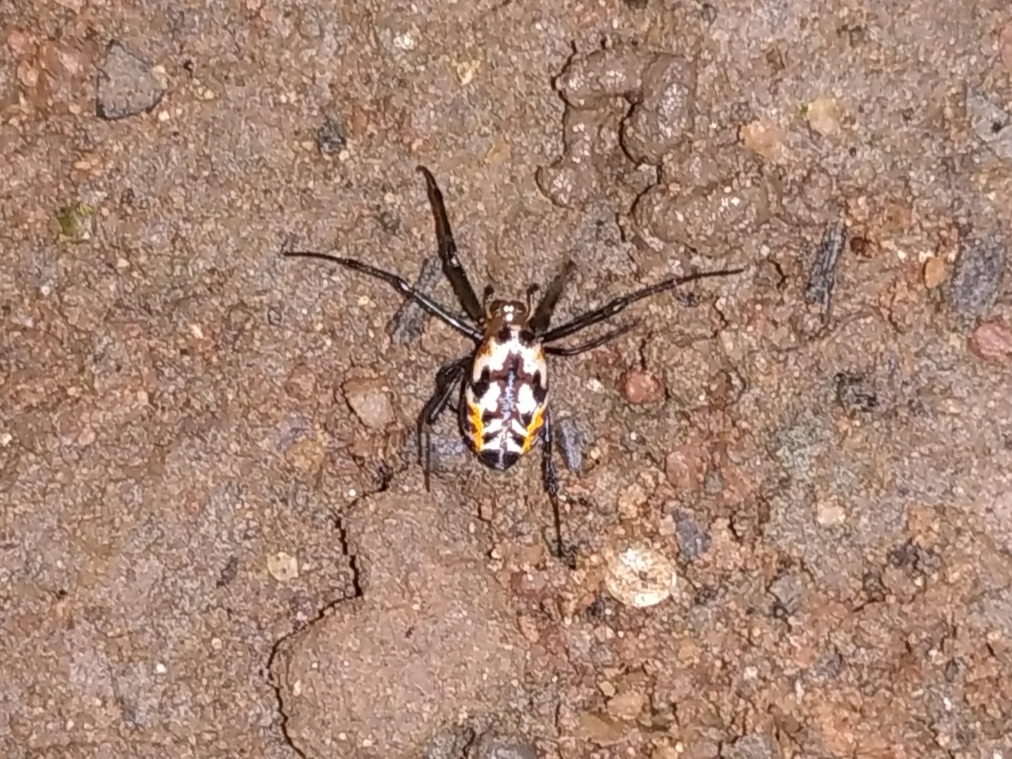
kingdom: Animalia
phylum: Arthropoda
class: Arachnida
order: Araneae
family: Tetragnathidae
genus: Leucauge
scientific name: Leucauge fastigata
